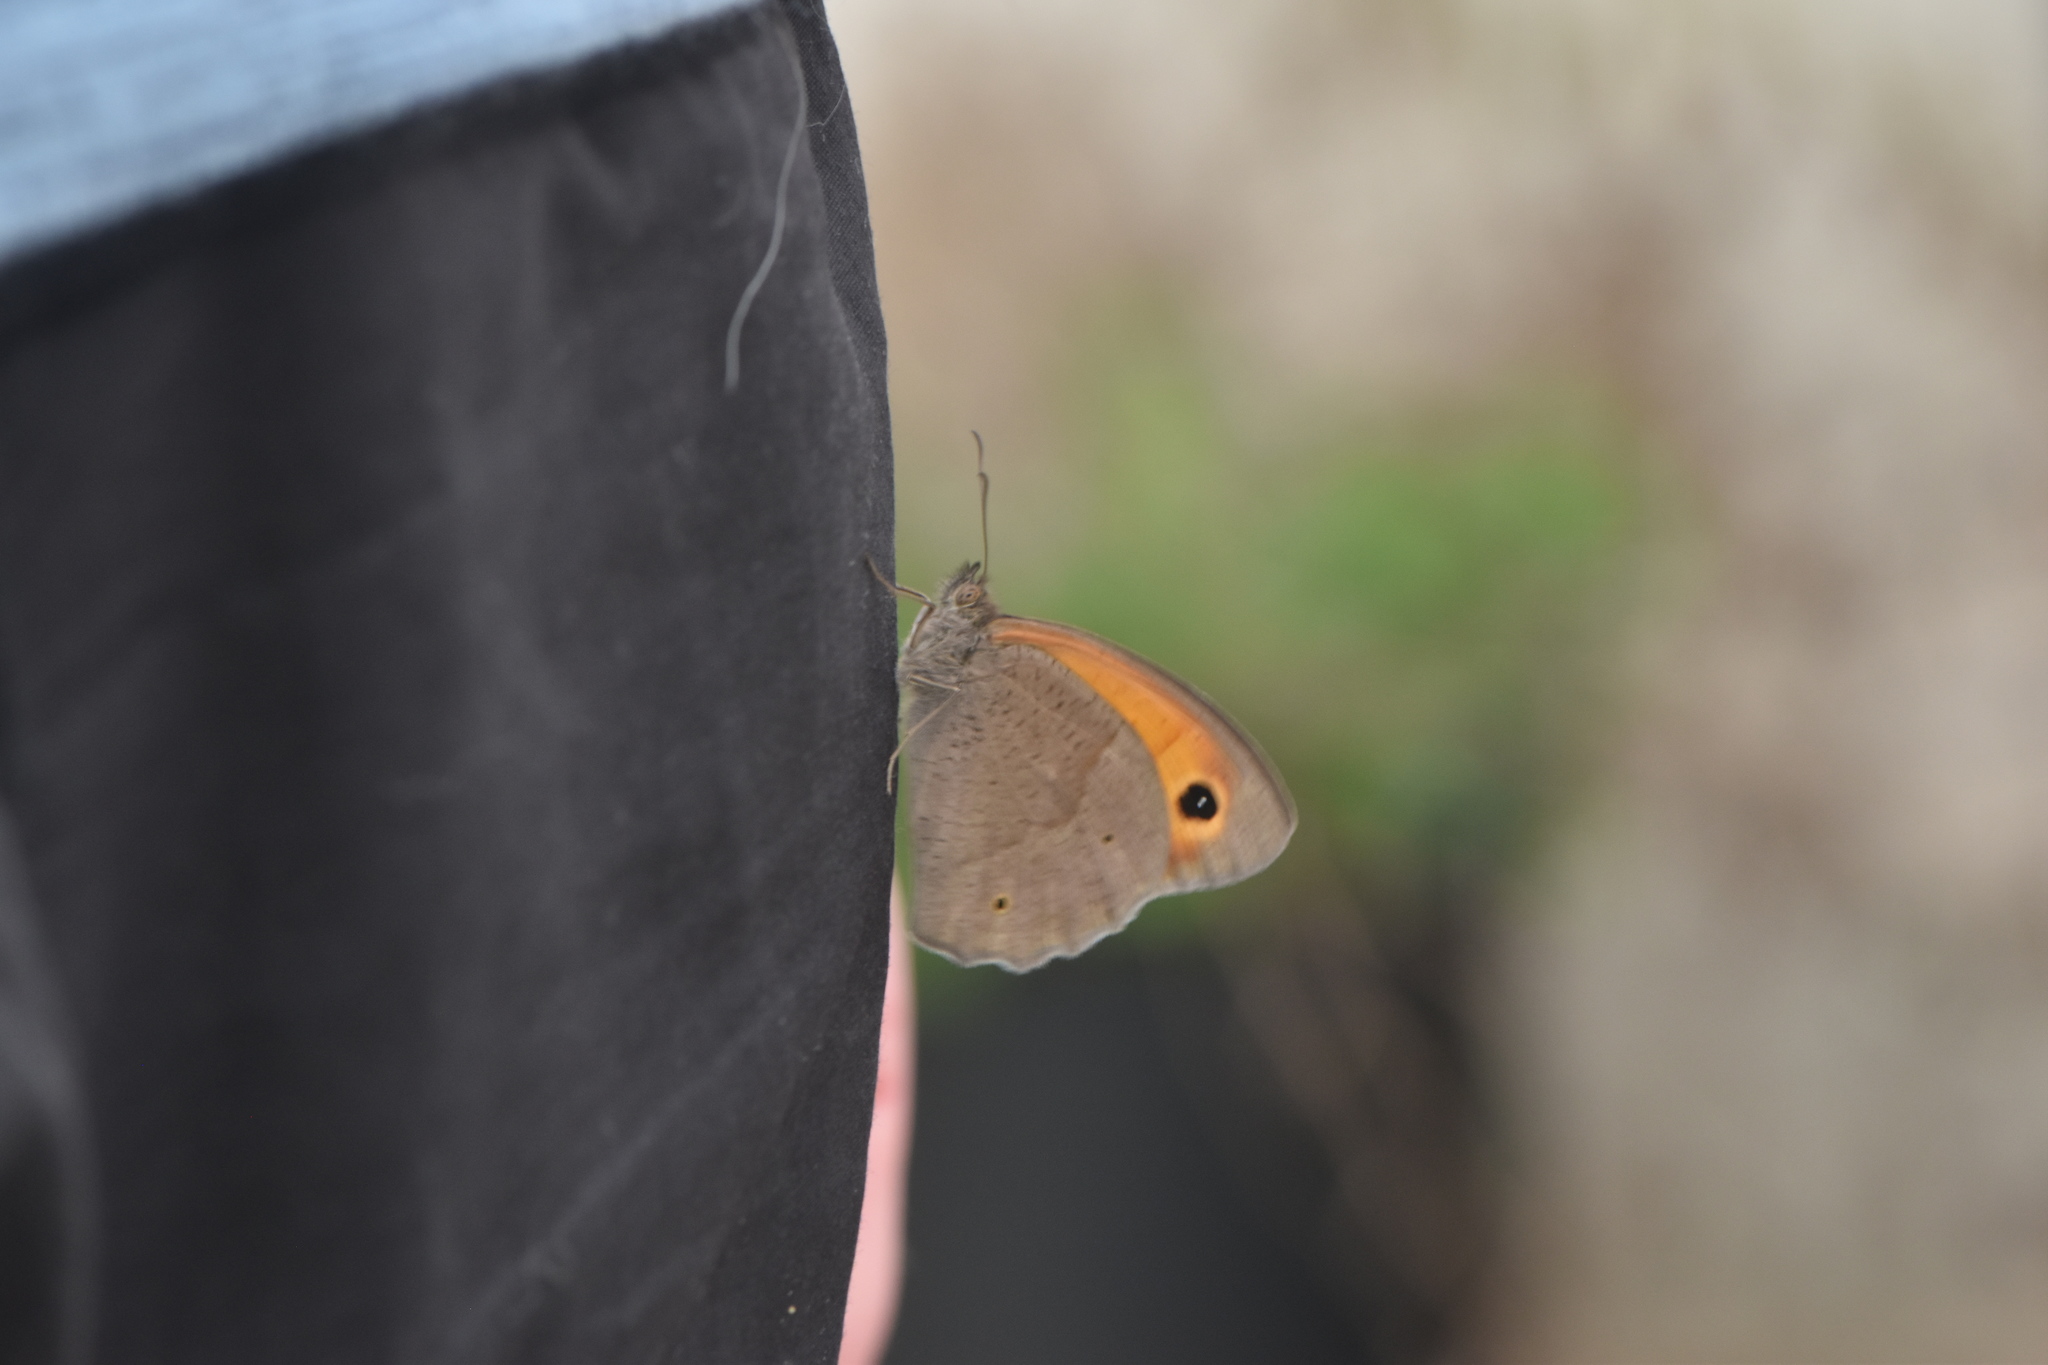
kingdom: Animalia
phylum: Arthropoda
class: Insecta
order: Lepidoptera
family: Nymphalidae
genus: Maniola
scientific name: Maniola jurtina
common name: Meadow brown
